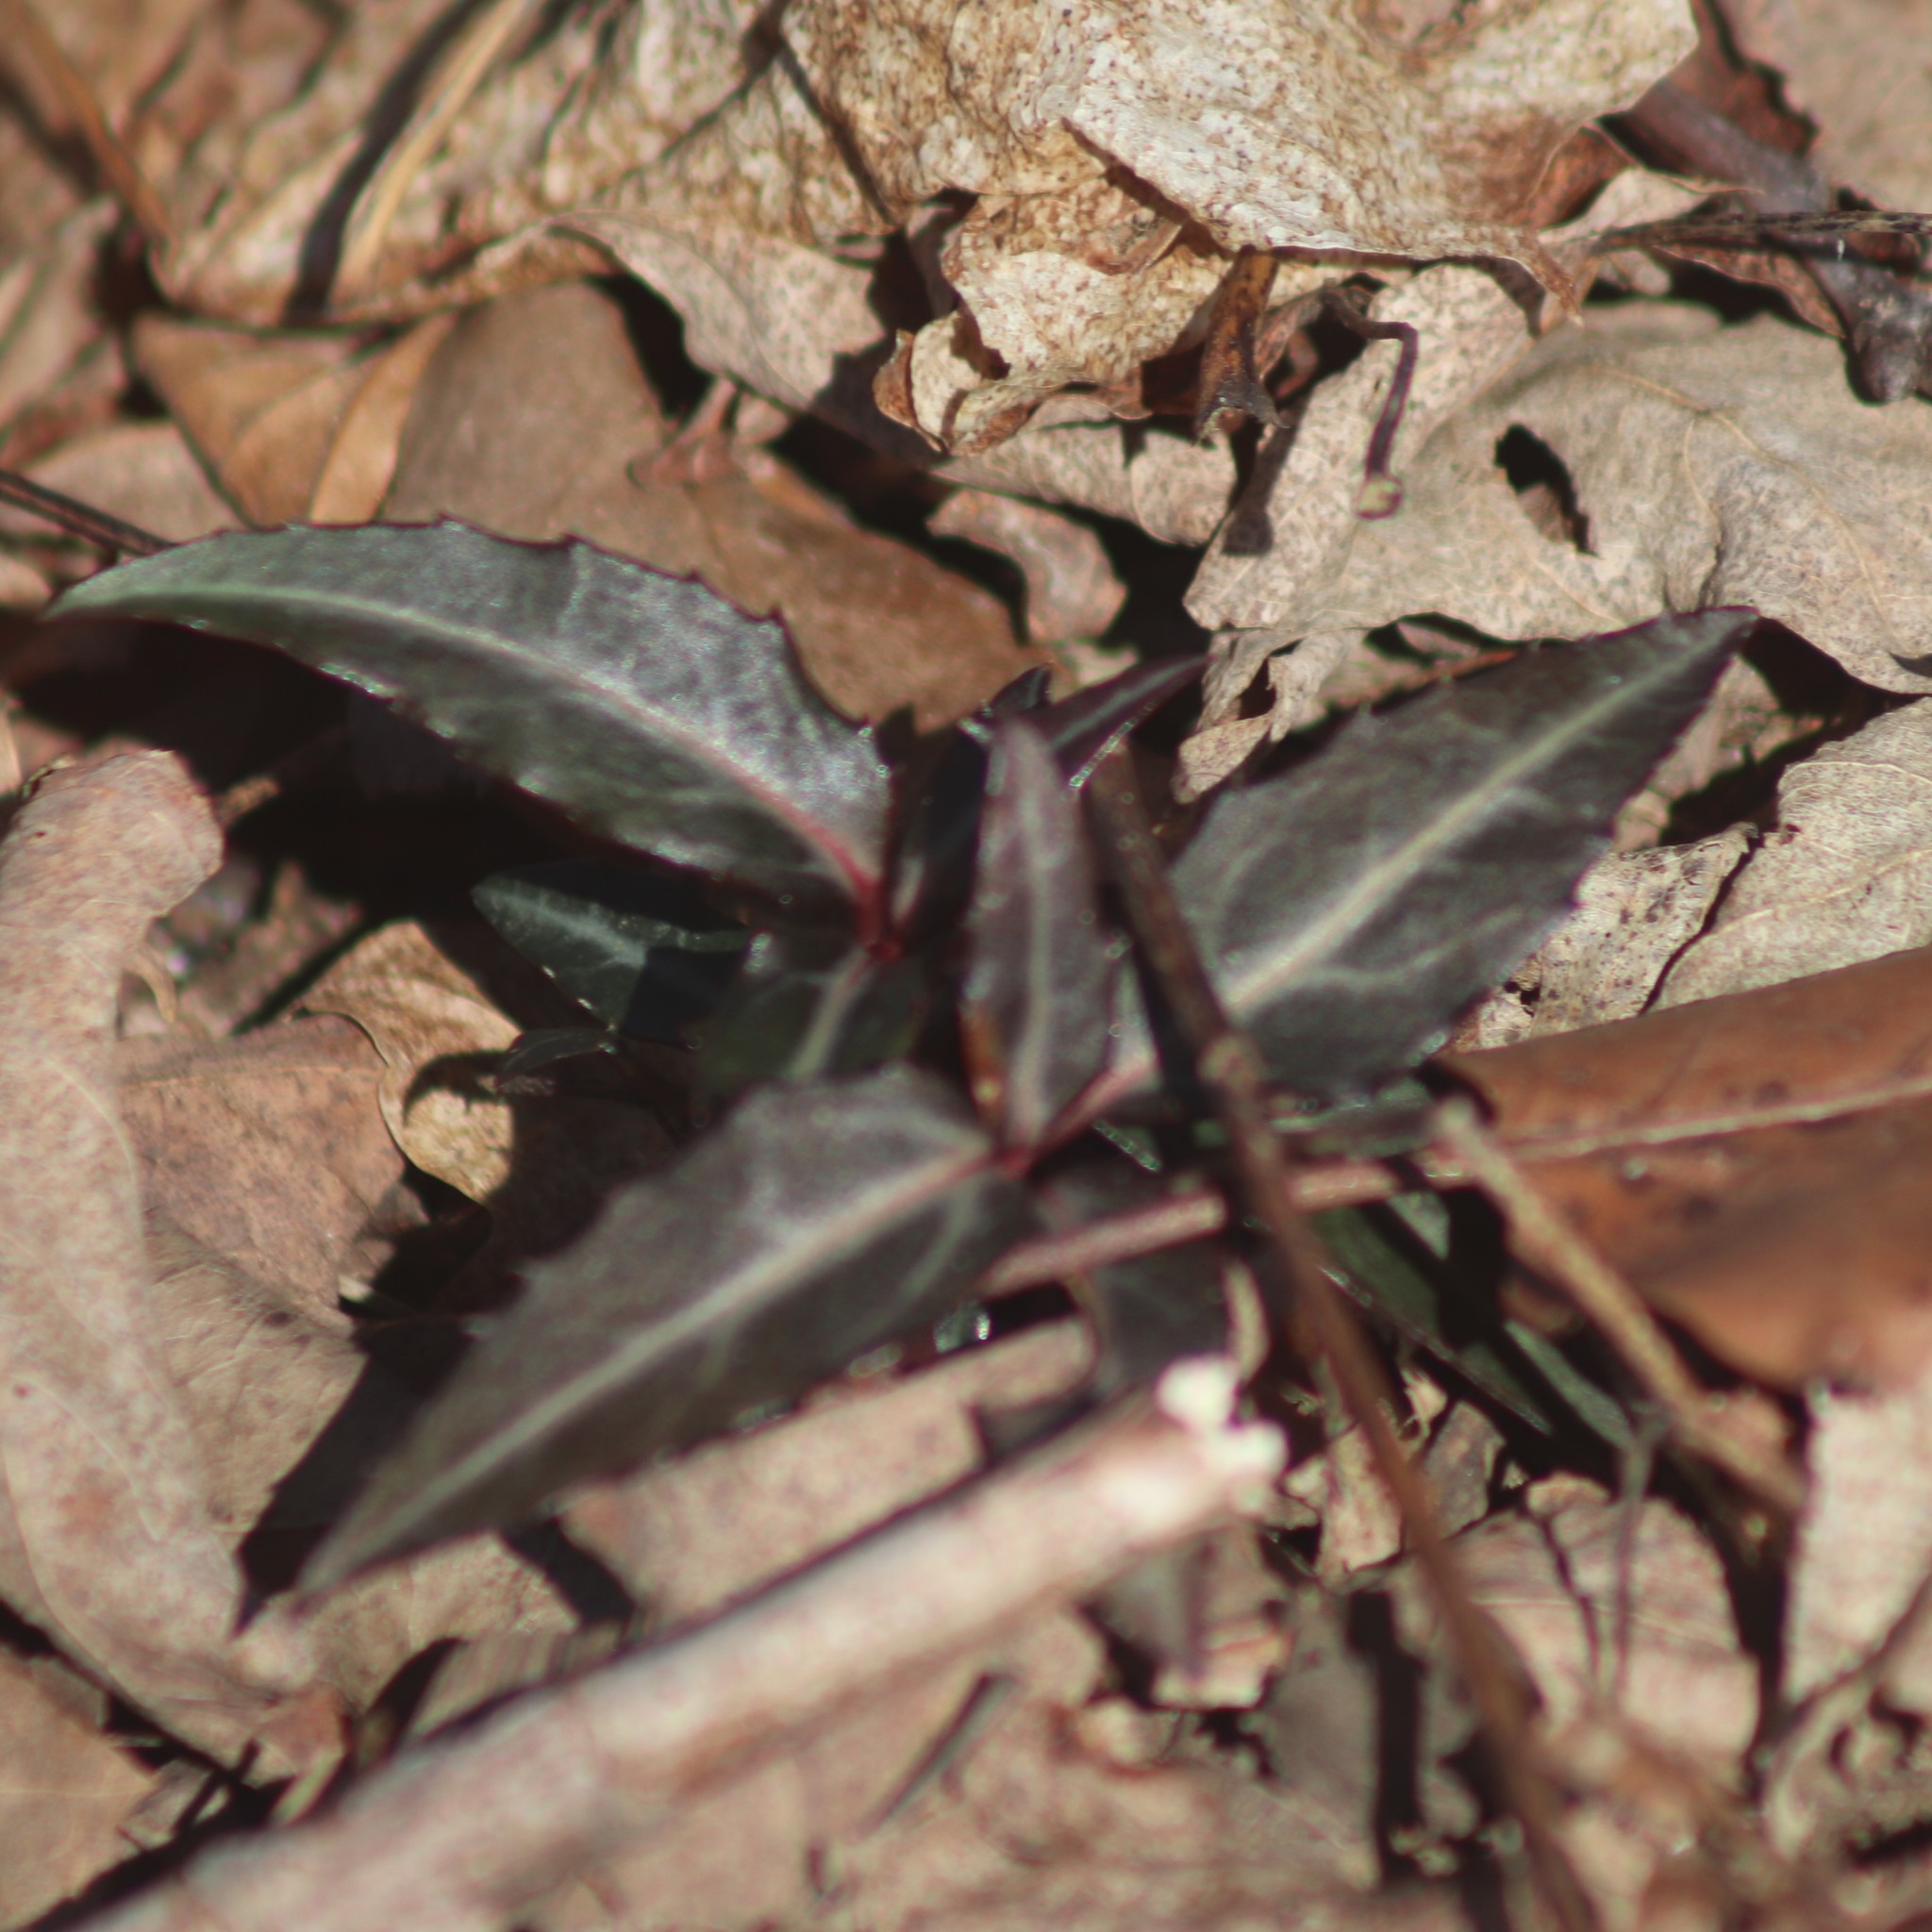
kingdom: Plantae
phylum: Tracheophyta
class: Magnoliopsida
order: Ericales
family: Ericaceae
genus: Chimaphila
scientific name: Chimaphila maculata
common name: Spotted pipsissewa
